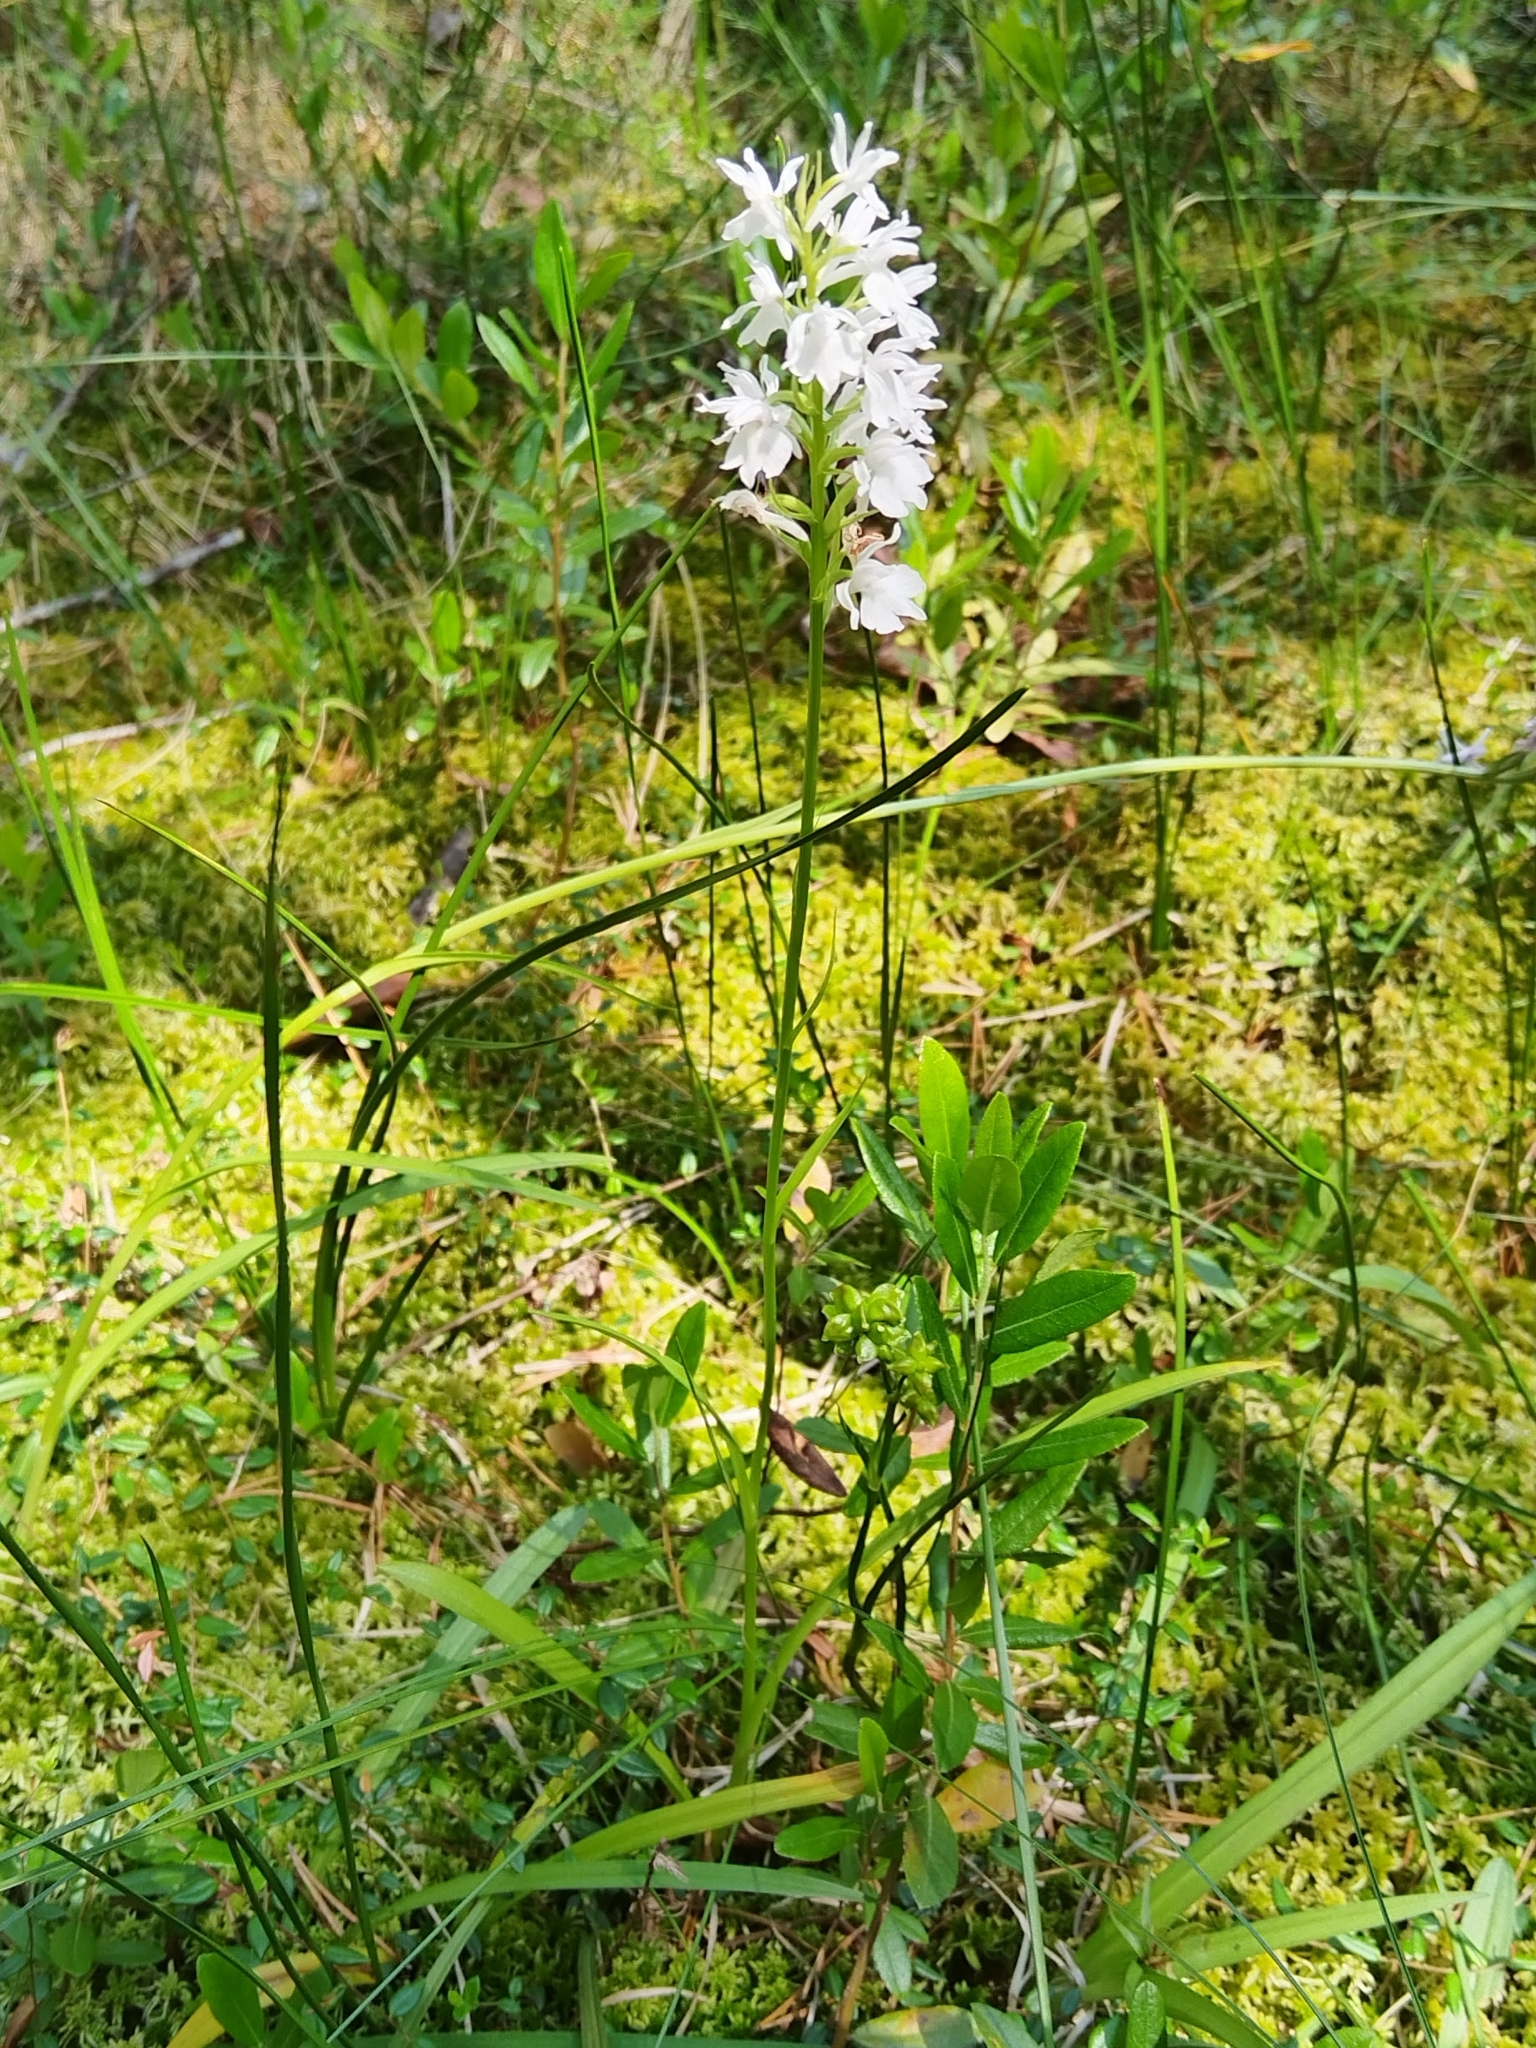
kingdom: Plantae
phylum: Tracheophyta
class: Liliopsida
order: Asparagales
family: Orchidaceae
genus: Dactylorhiza
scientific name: Dactylorhiza maculata
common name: Heath spotted-orchid
